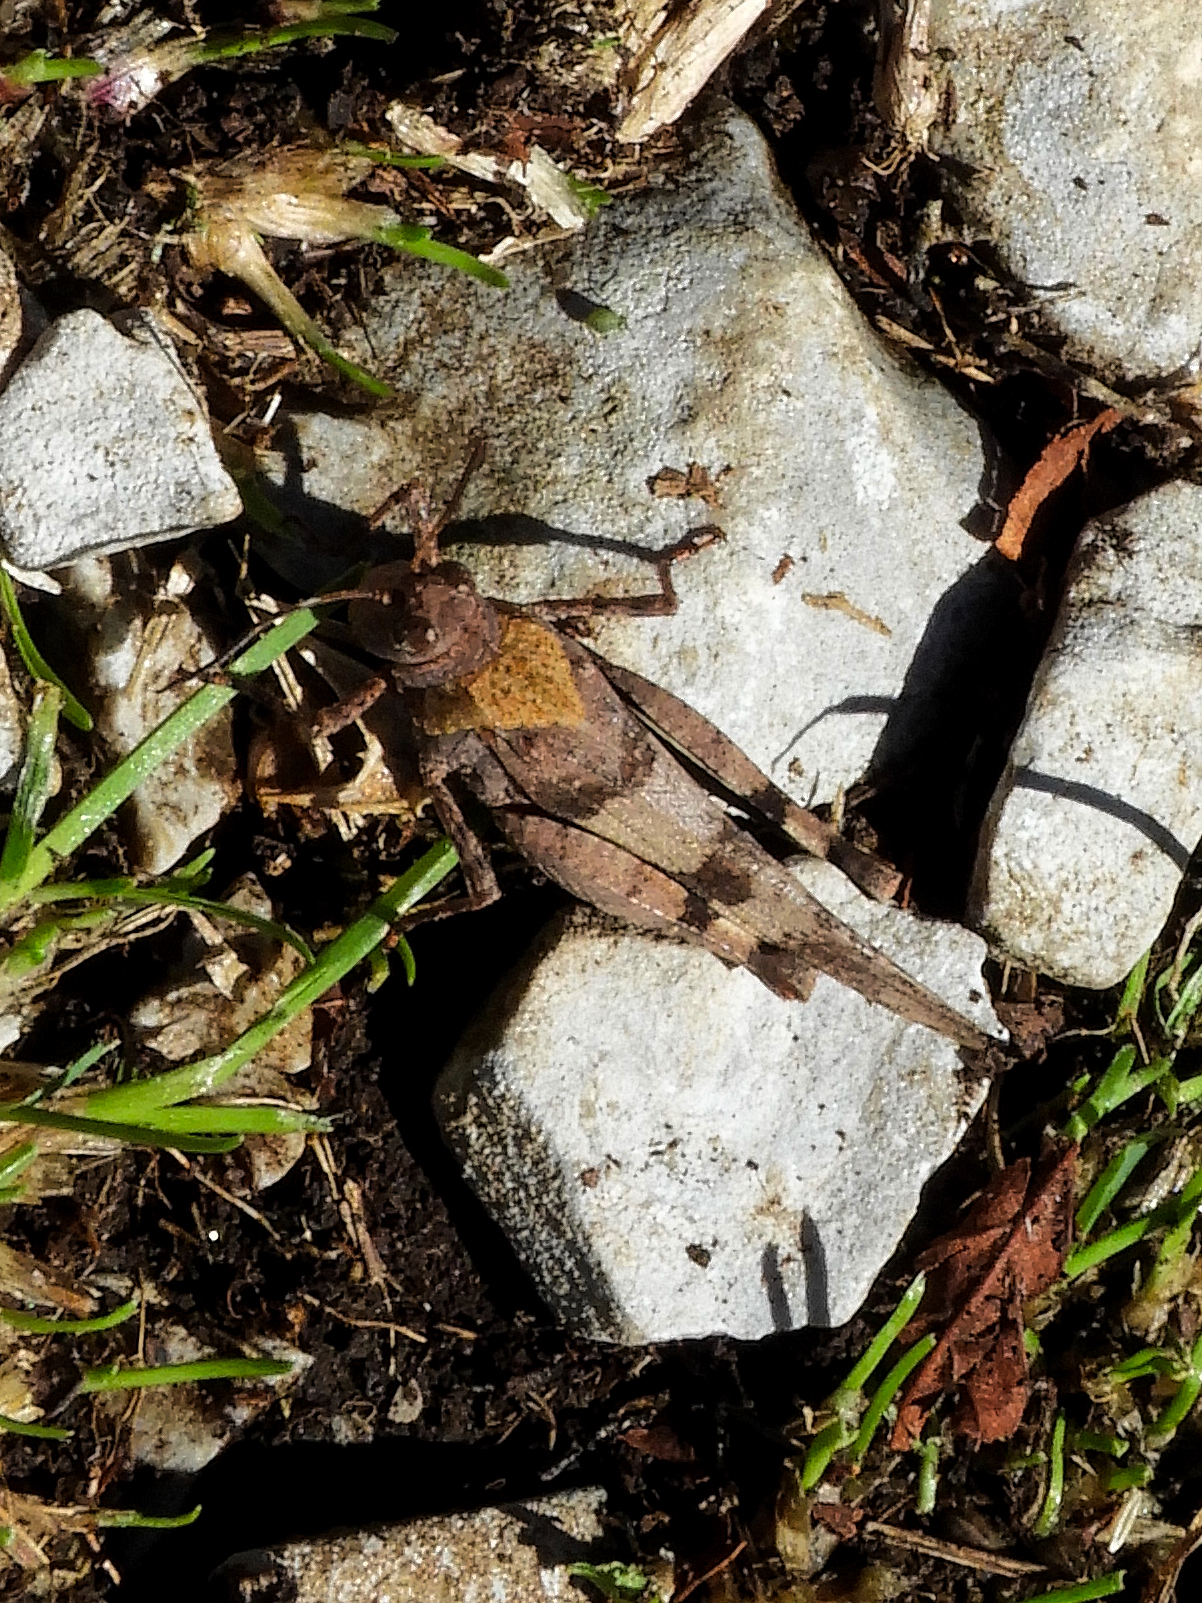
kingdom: Animalia
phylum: Arthropoda
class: Insecta
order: Orthoptera
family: Acrididae
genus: Oedipoda
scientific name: Oedipoda caerulescens
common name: Blue-winged grasshopper
